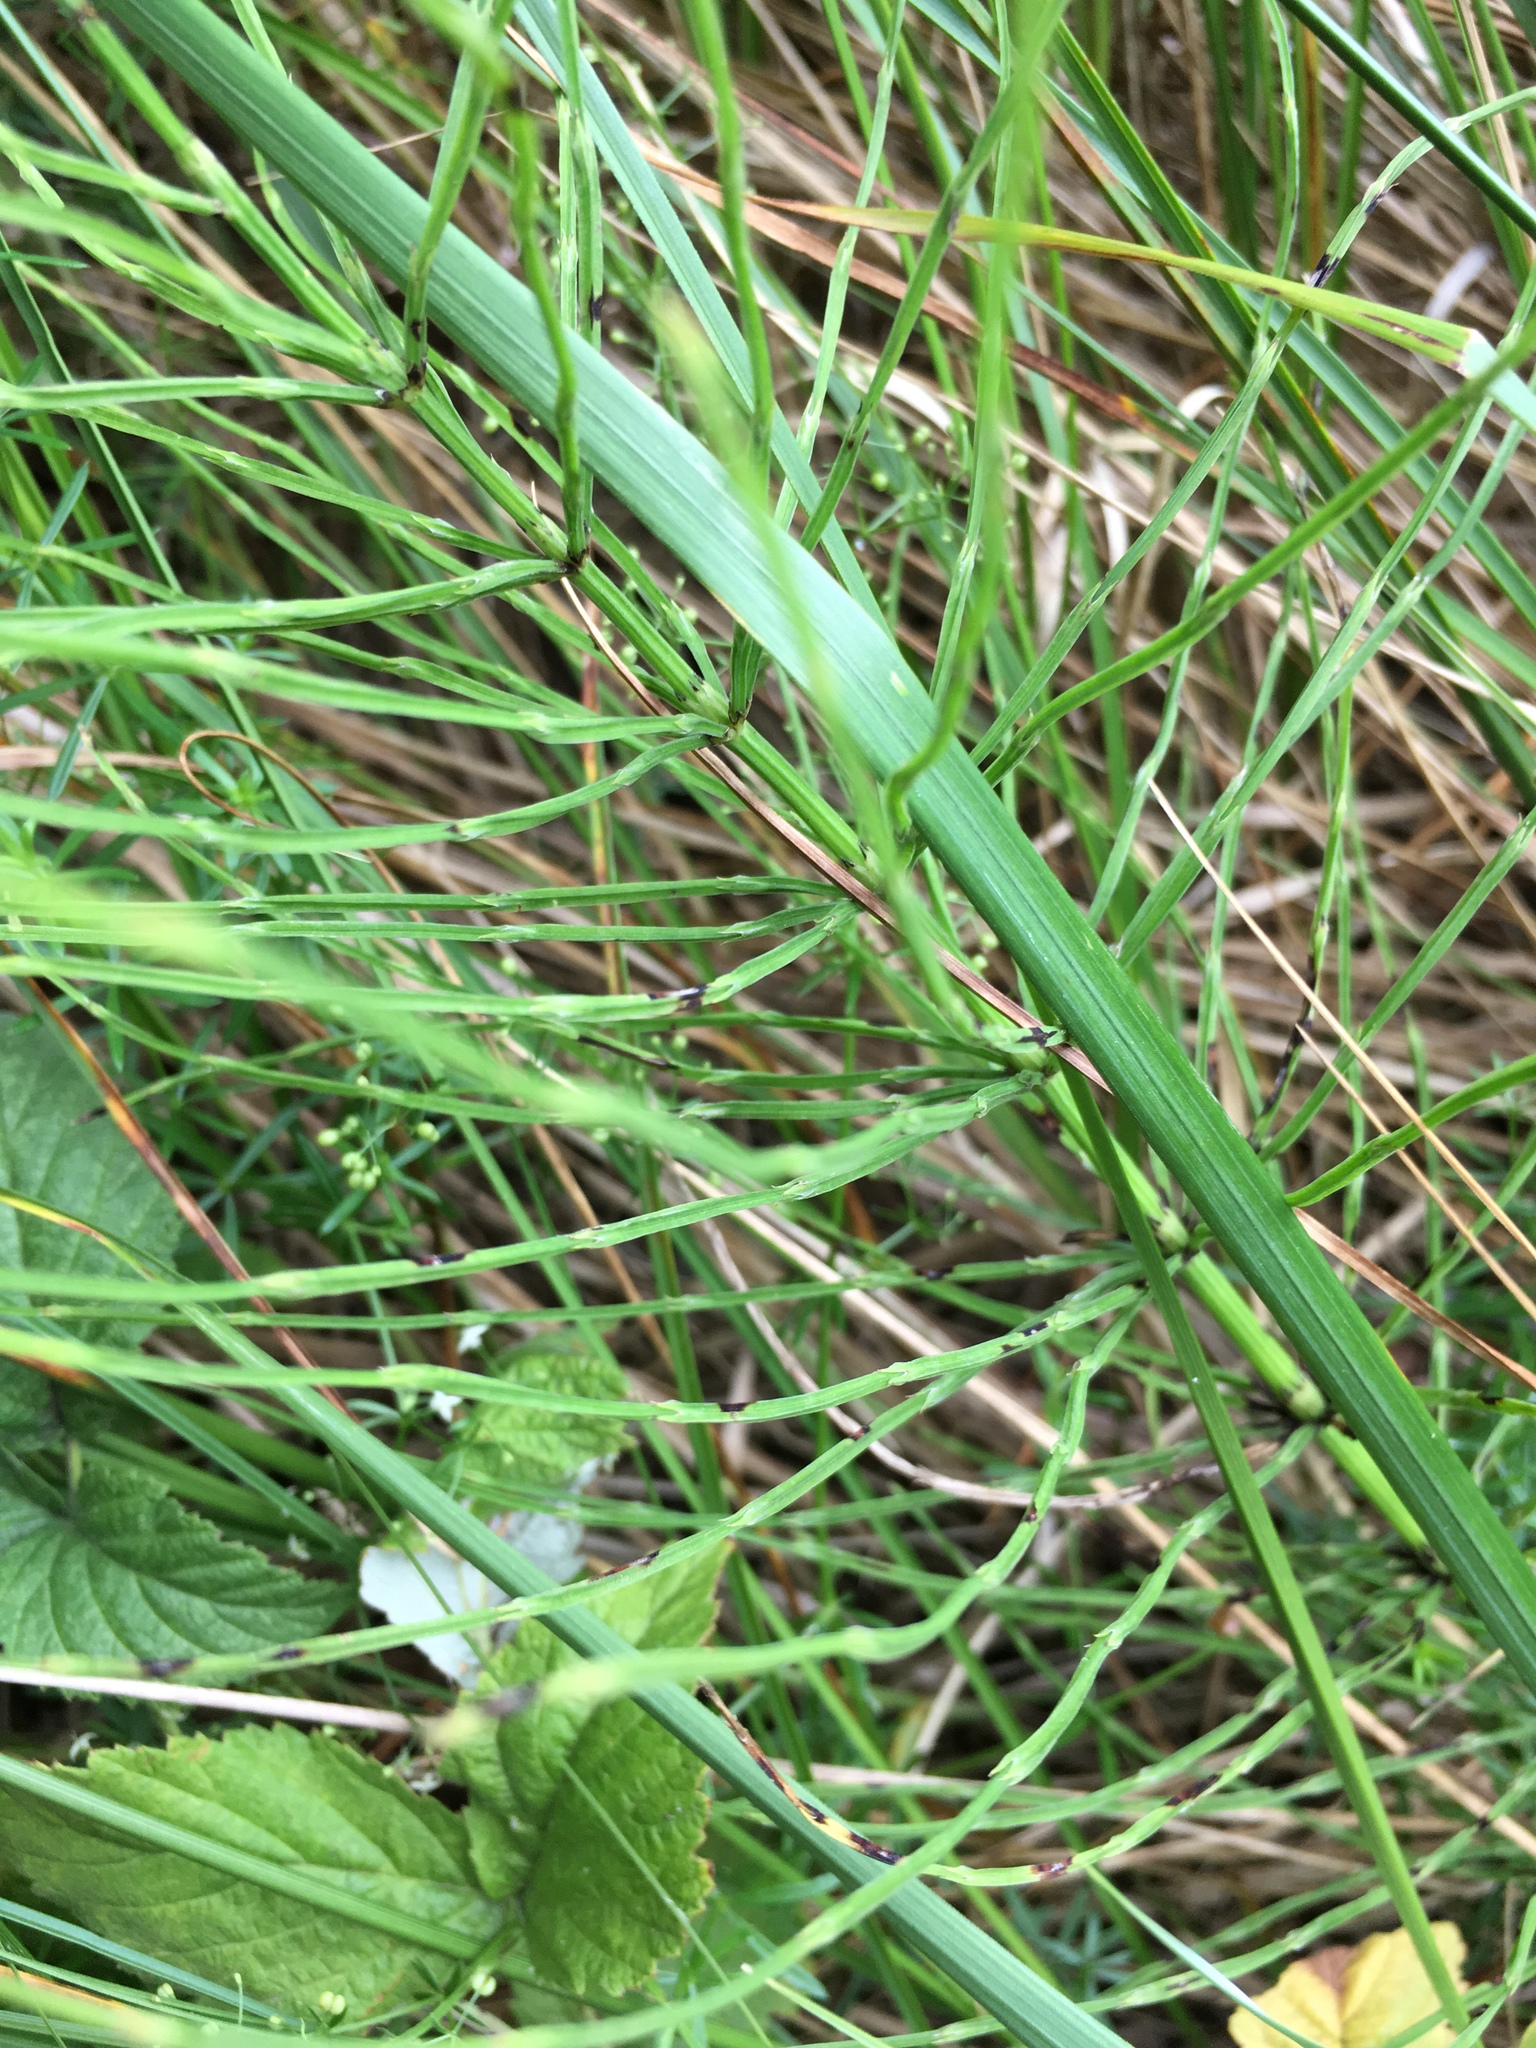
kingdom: Plantae
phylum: Tracheophyta
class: Polypodiopsida
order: Equisetales
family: Equisetaceae
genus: Equisetum
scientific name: Equisetum arvense
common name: Field horsetail
